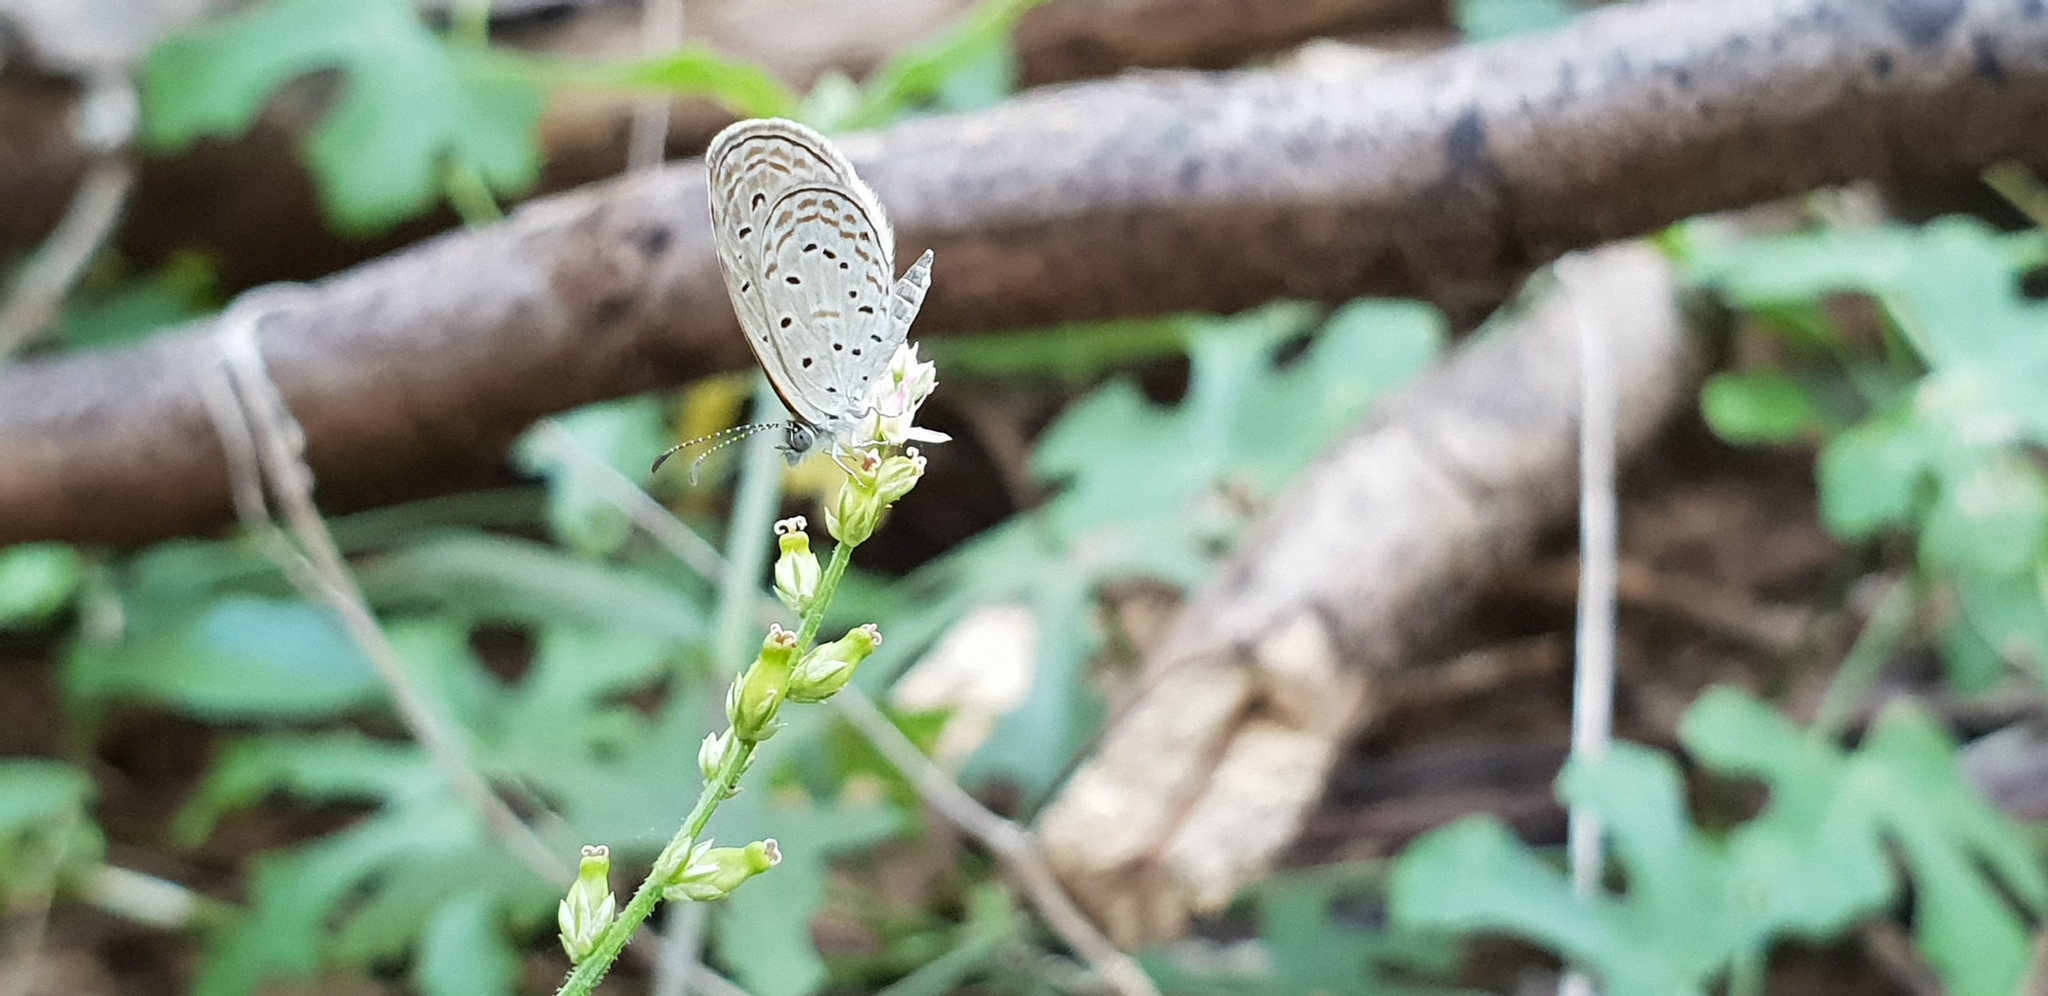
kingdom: Animalia
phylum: Arthropoda
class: Insecta
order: Lepidoptera
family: Lycaenidae
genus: Zizula
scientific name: Zizula hylax
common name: Gaika blue
